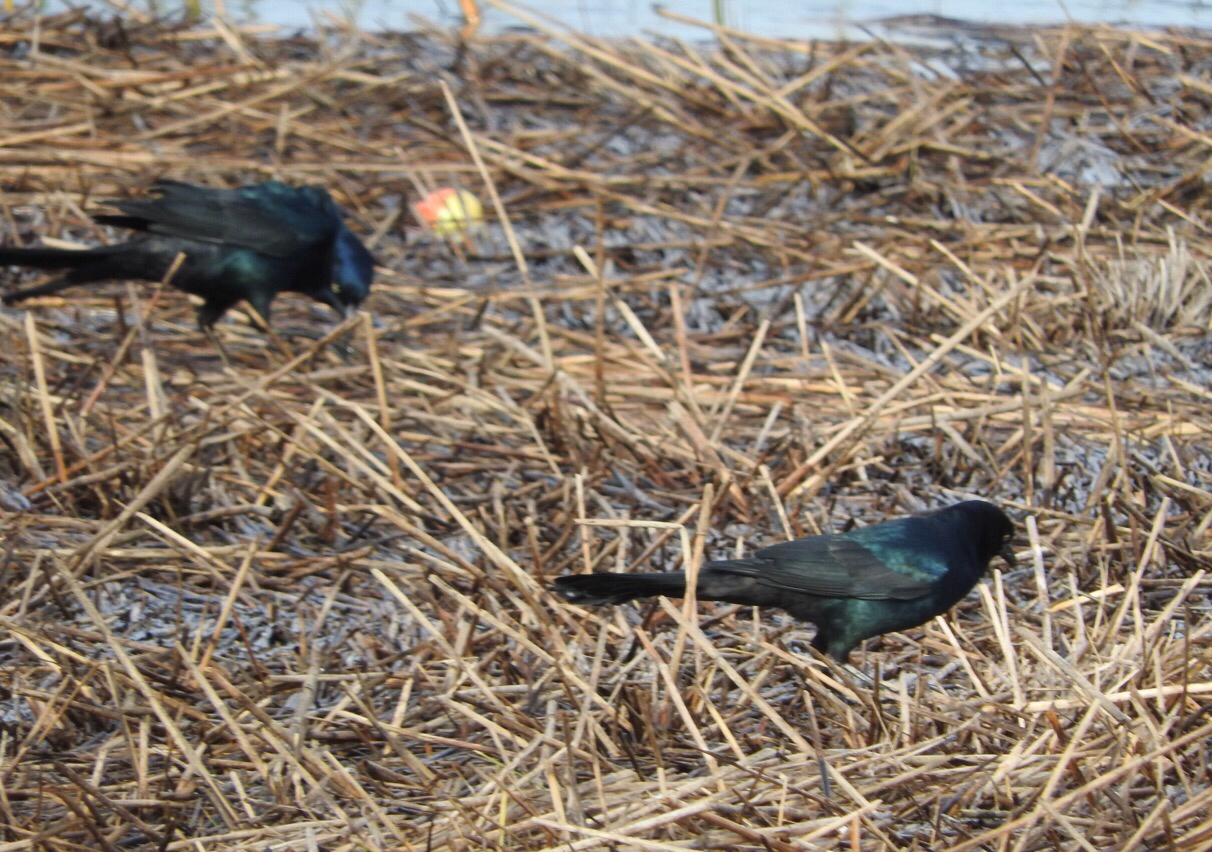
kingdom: Animalia
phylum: Chordata
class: Aves
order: Passeriformes
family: Icteridae
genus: Quiscalus
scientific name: Quiscalus major
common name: Boat-tailed grackle
